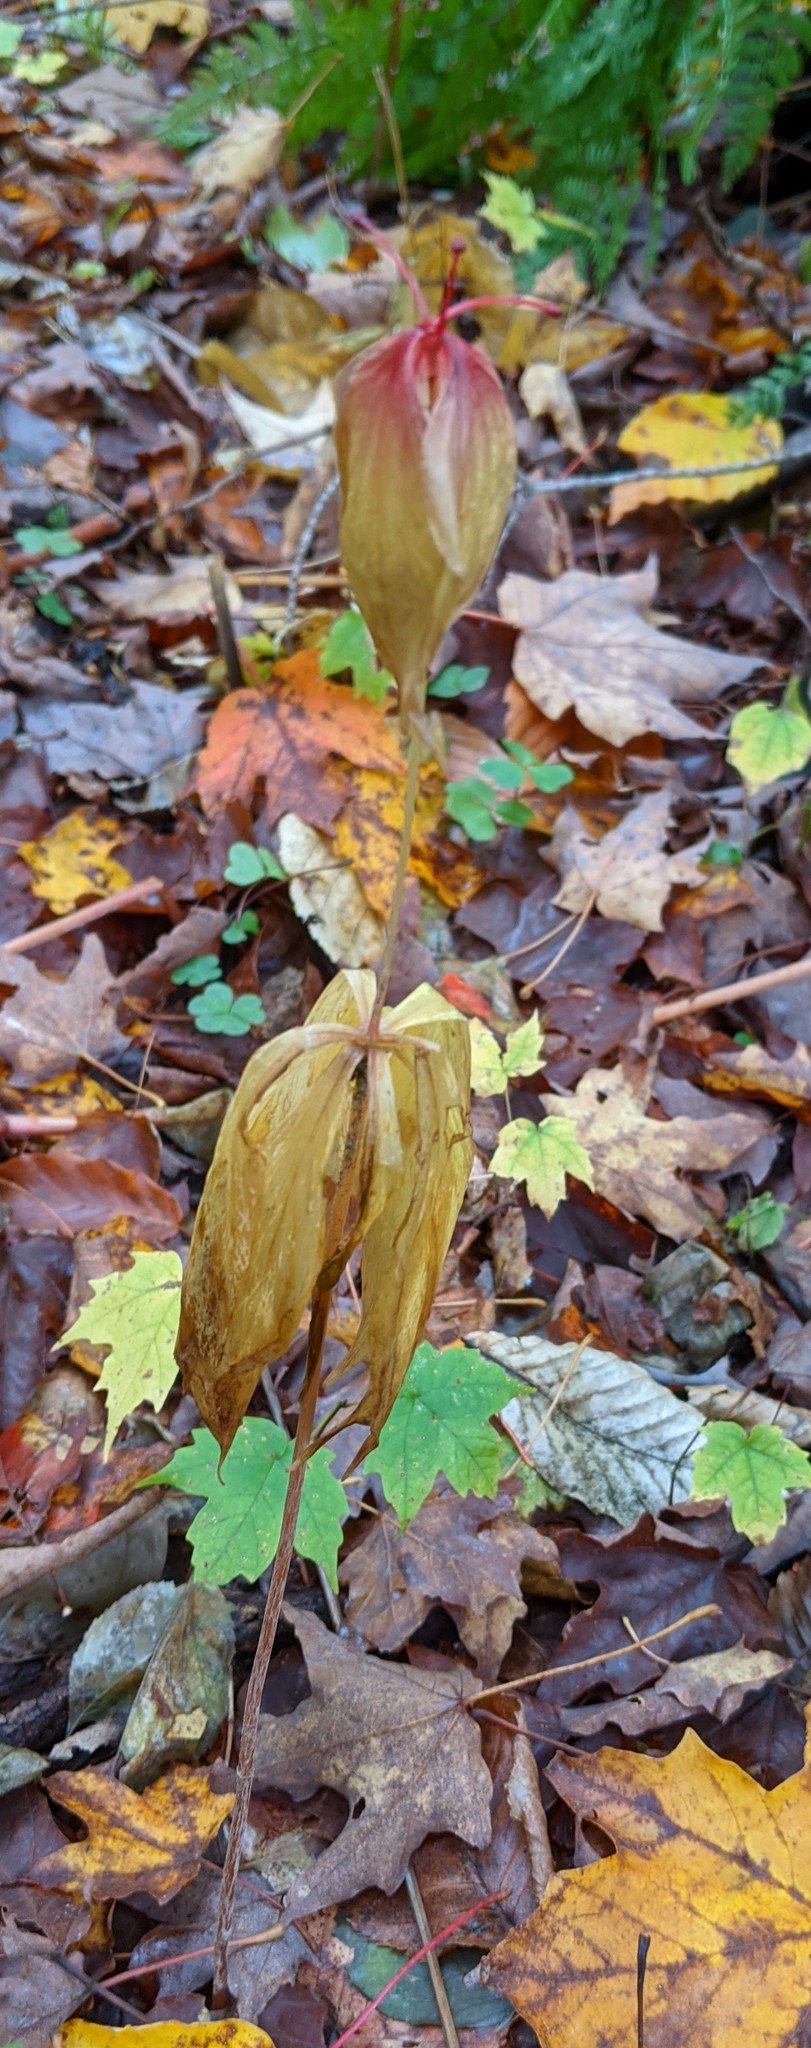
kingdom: Plantae
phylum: Tracheophyta
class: Liliopsida
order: Liliales
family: Liliaceae
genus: Medeola
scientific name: Medeola virginiana
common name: Indian cucumber-root
